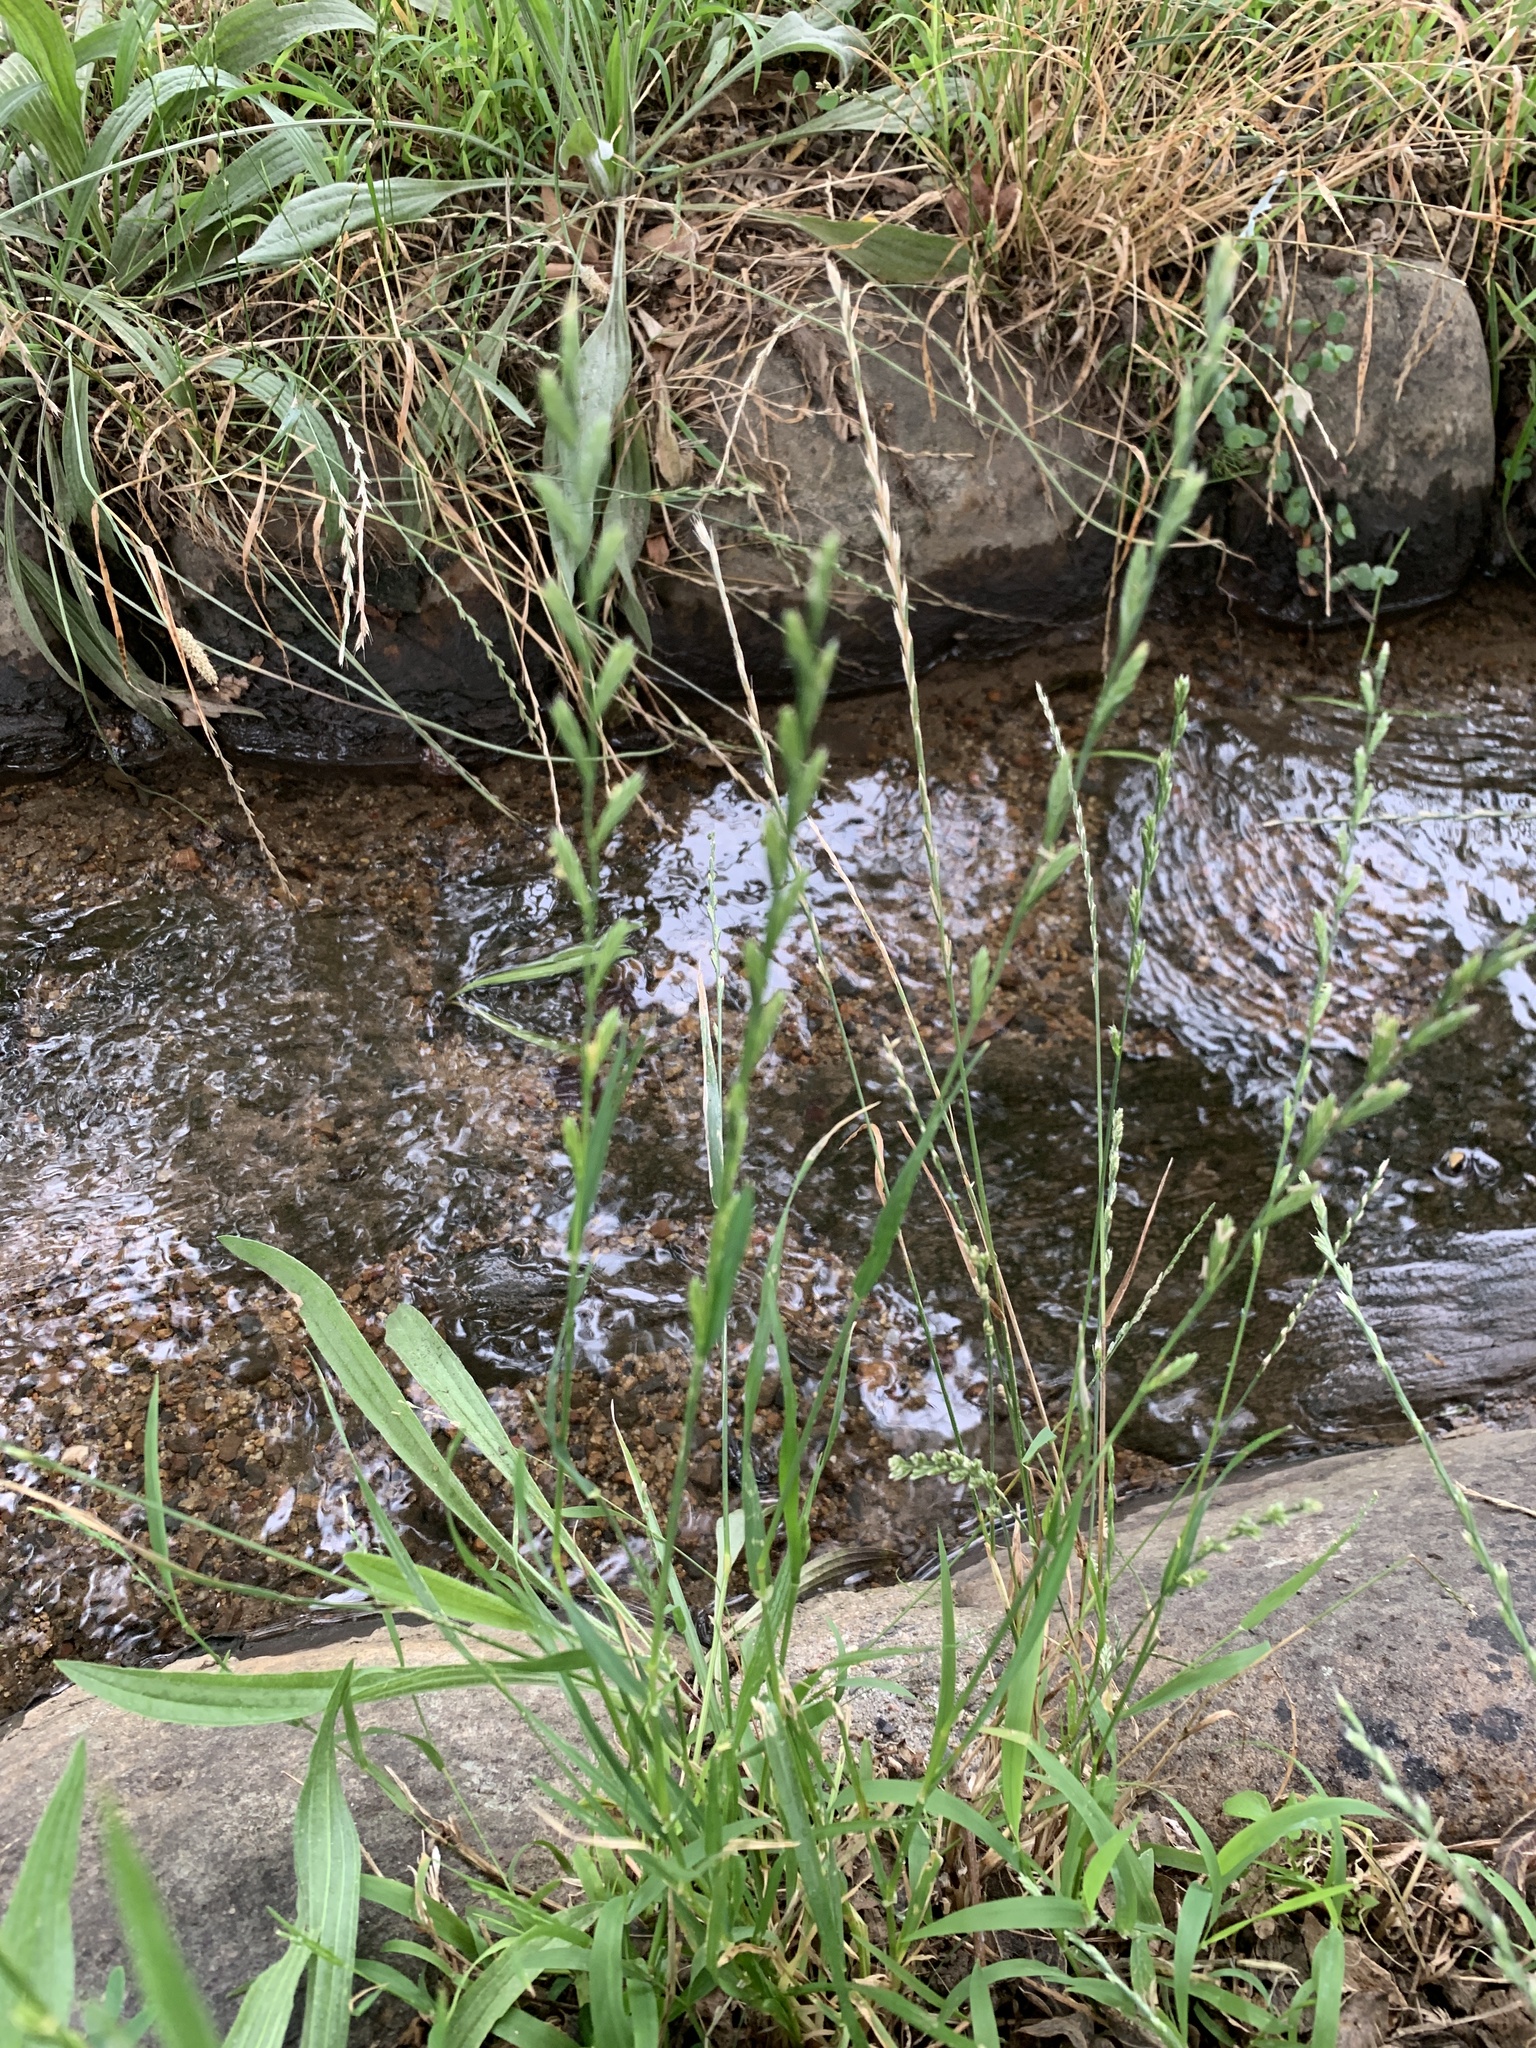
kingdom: Plantae
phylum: Tracheophyta
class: Liliopsida
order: Poales
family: Poaceae
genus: Lolium
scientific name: Lolium multiflorum
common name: Annual ryegrass
